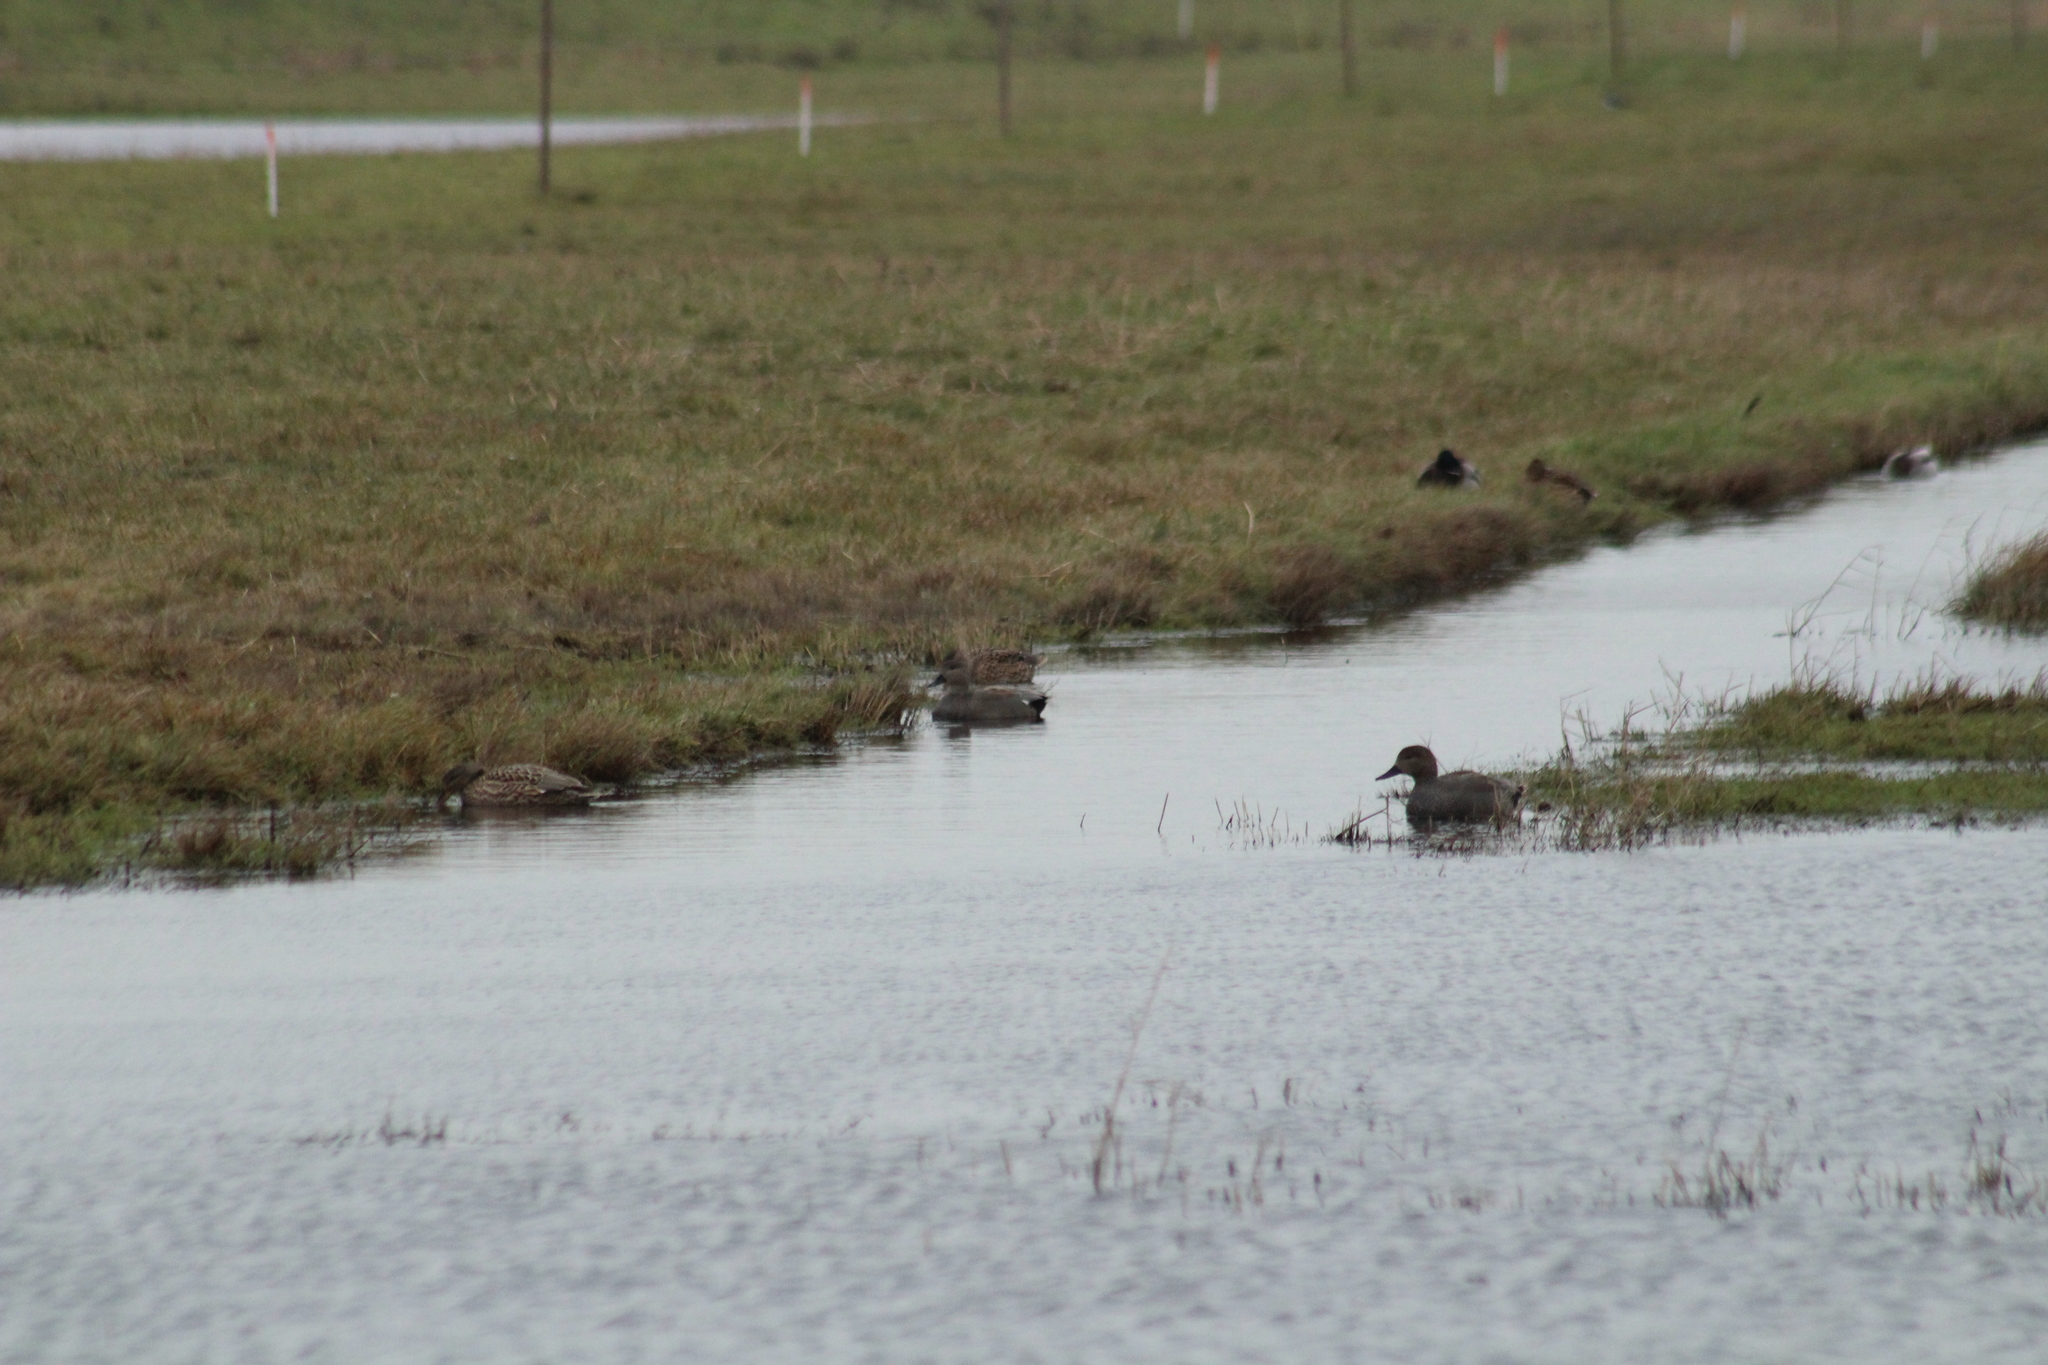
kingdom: Animalia
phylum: Chordata
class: Aves
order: Anseriformes
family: Anatidae
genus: Mareca
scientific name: Mareca strepera
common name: Gadwall
